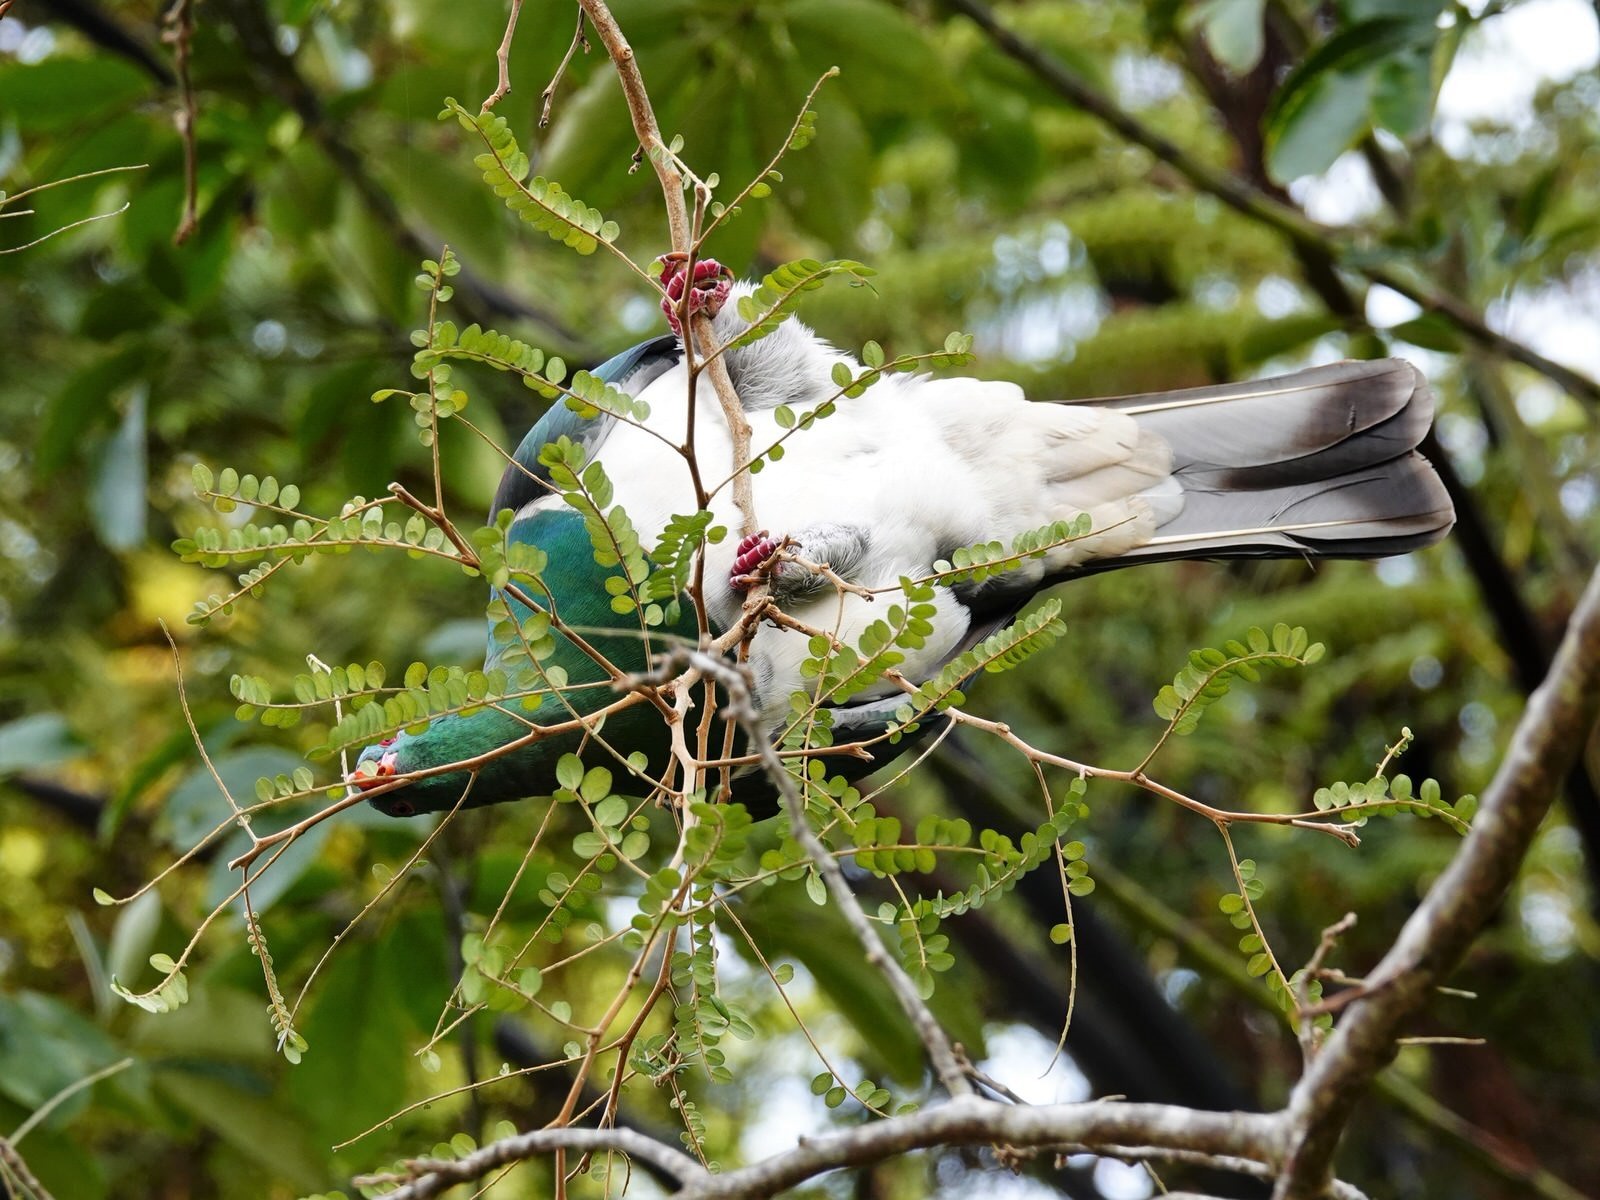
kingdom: Animalia
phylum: Chordata
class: Aves
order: Columbiformes
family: Columbidae
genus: Hemiphaga
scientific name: Hemiphaga novaeseelandiae
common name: New zealand pigeon
